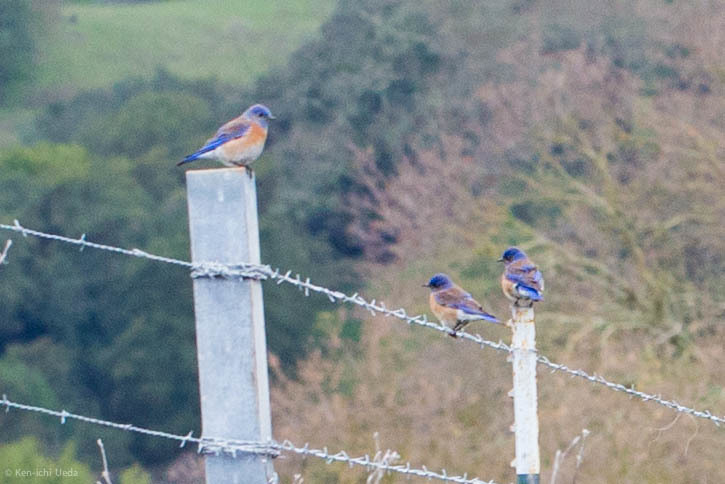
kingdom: Animalia
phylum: Chordata
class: Aves
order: Passeriformes
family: Turdidae
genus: Sialia
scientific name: Sialia mexicana
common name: Western bluebird
